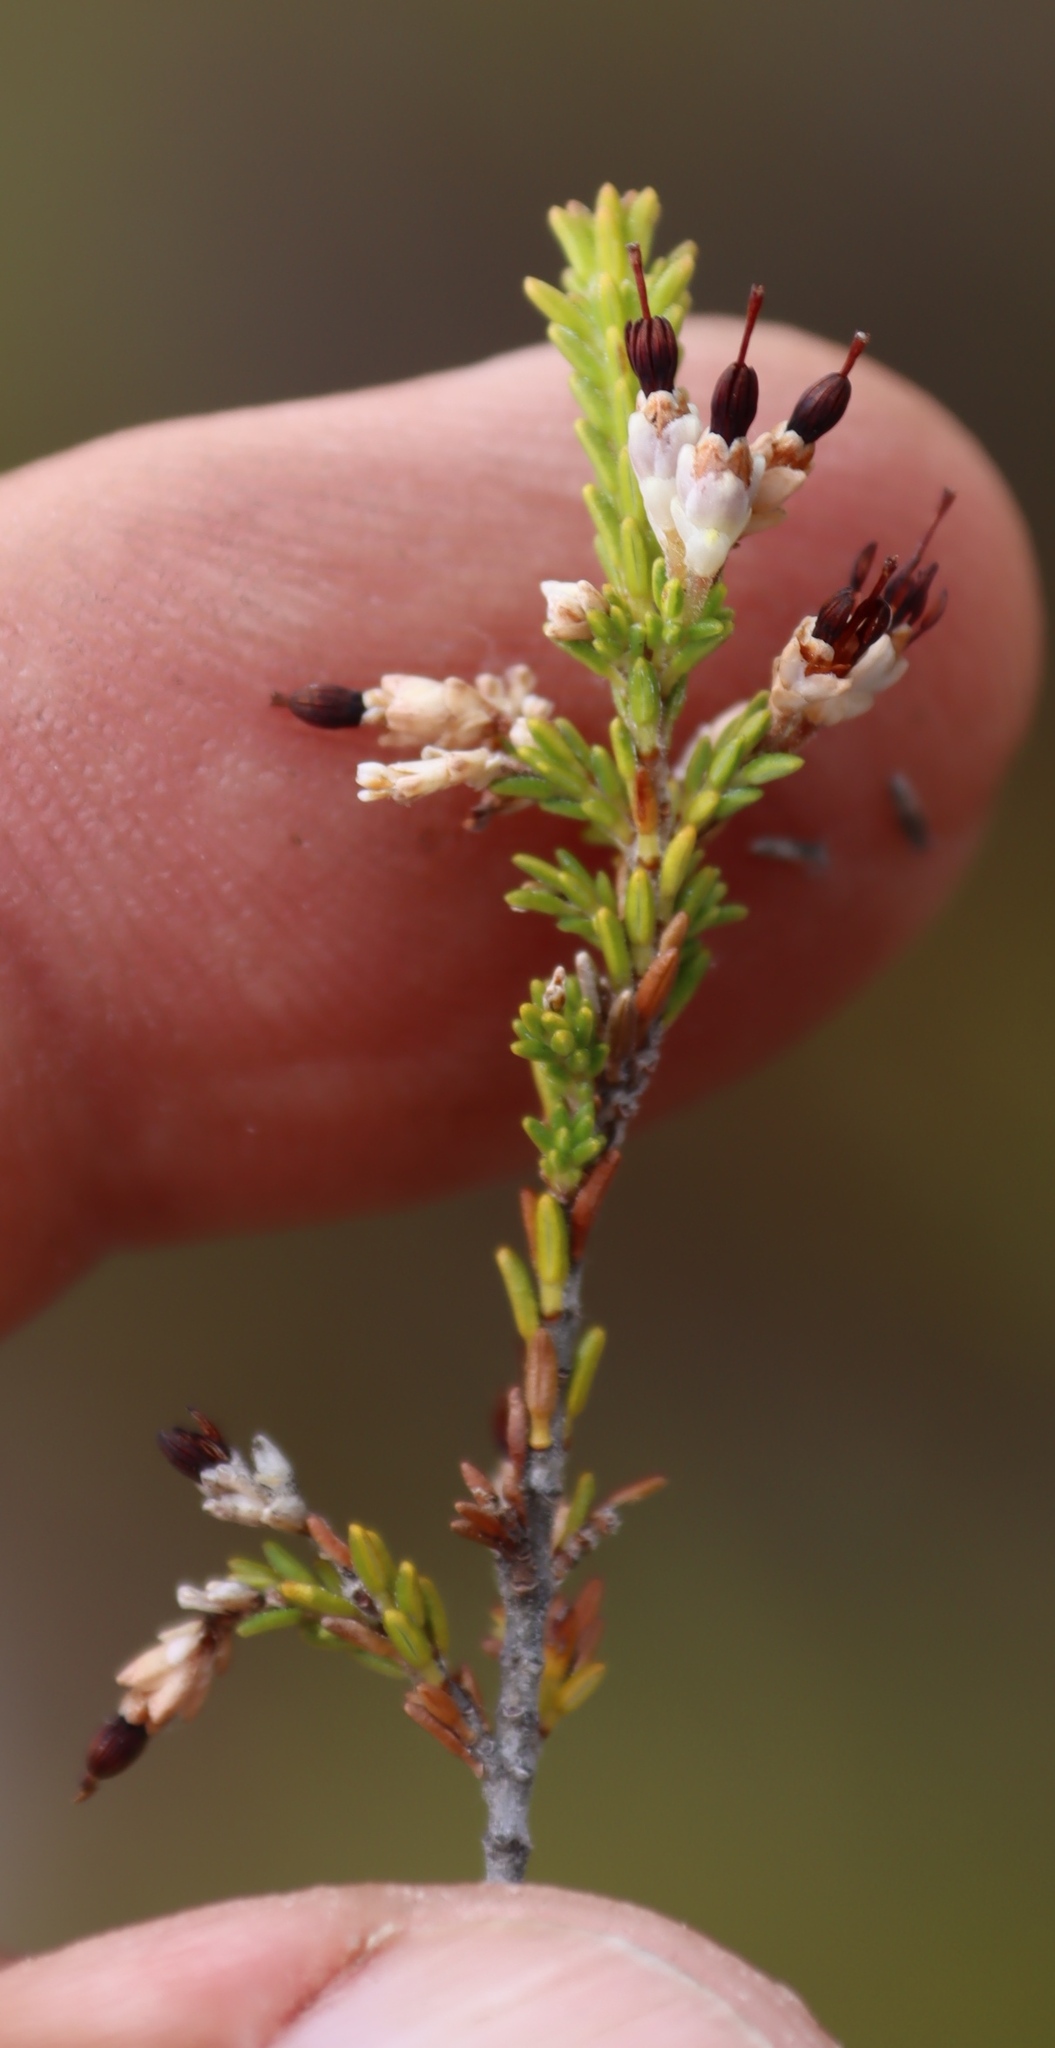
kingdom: Plantae
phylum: Tracheophyta
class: Magnoliopsida
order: Ericales
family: Ericaceae
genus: Erica
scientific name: Erica lasciva
